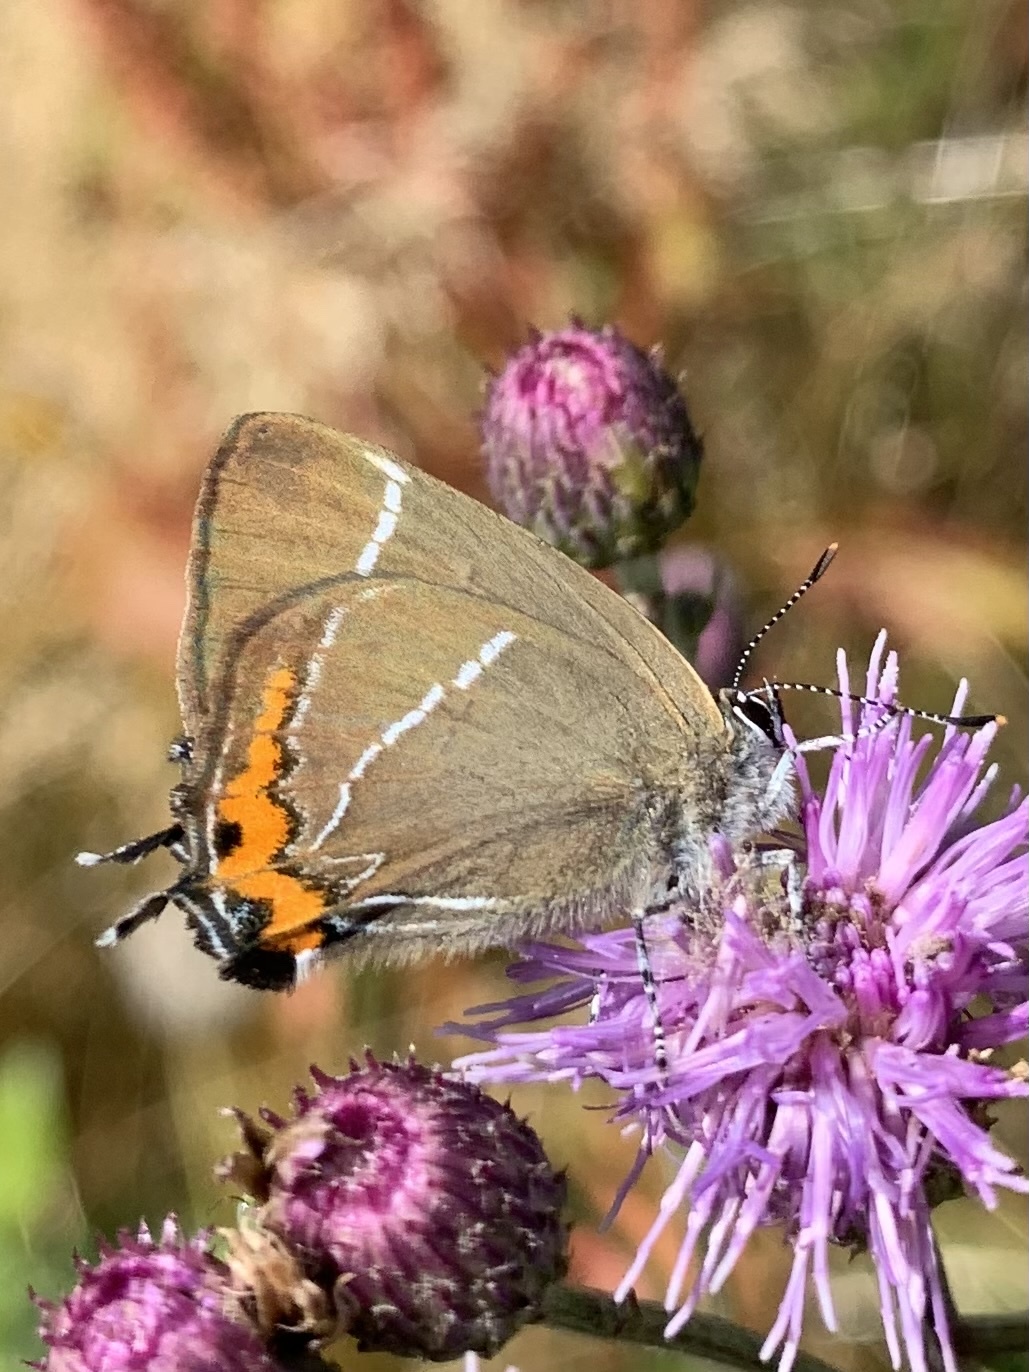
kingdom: Animalia
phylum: Arthropoda
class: Insecta
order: Lepidoptera
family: Lycaenidae
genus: Satyrium
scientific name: Satyrium w-album
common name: White-letter hairstreak
